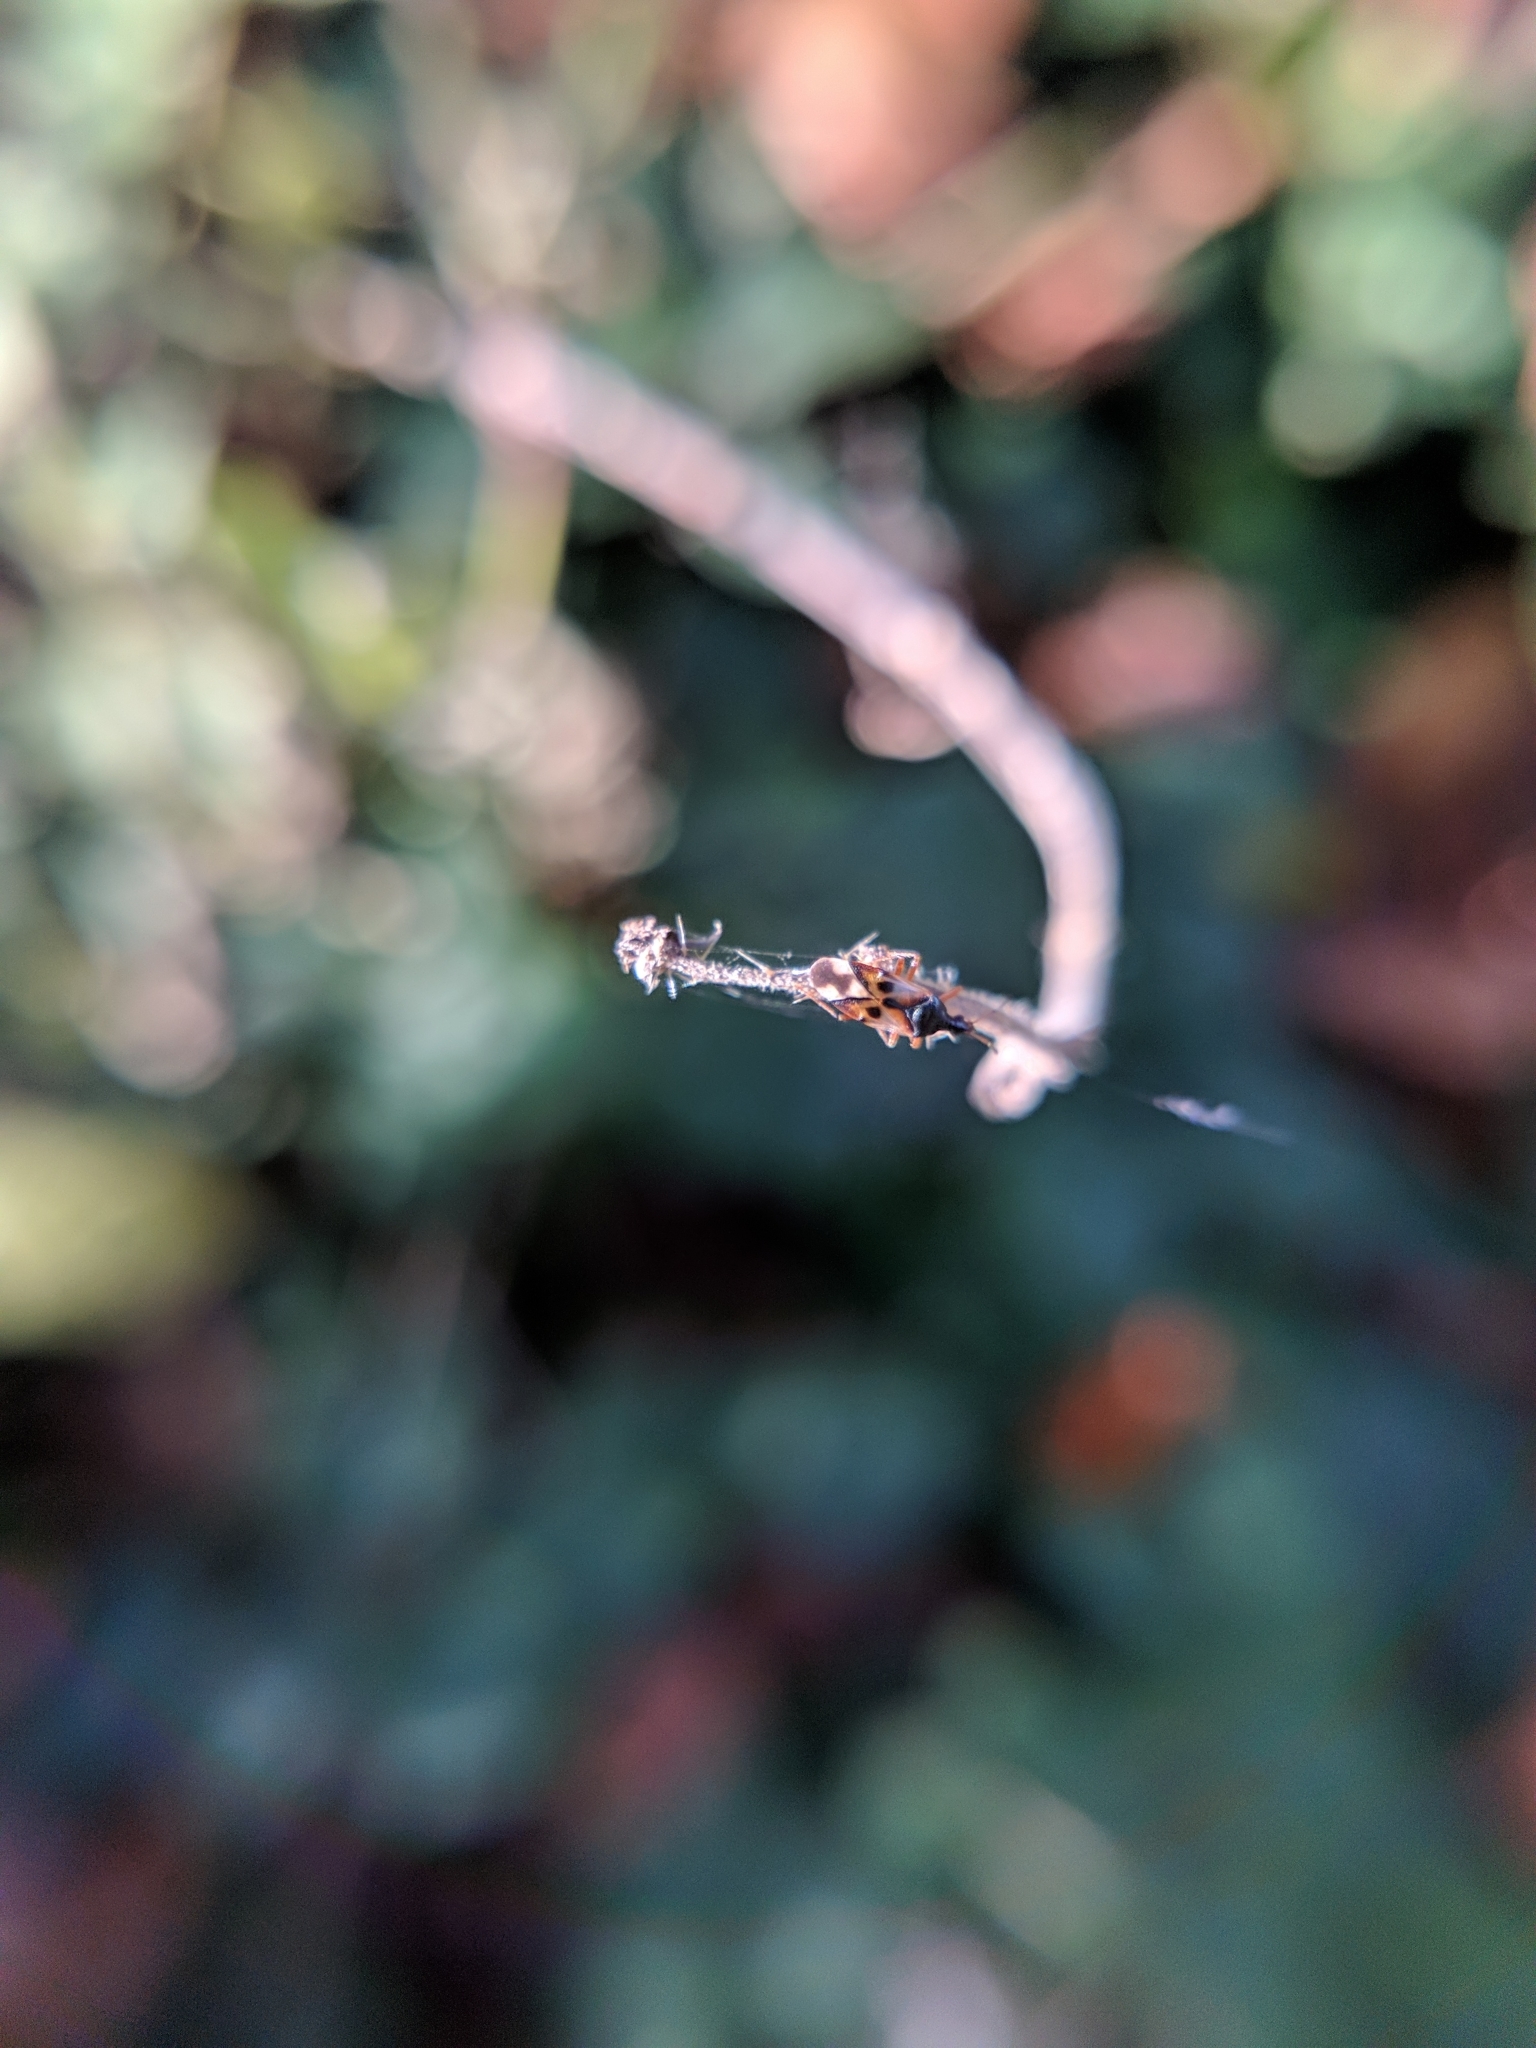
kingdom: Animalia
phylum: Arthropoda
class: Insecta
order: Hemiptera
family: Anthocoridae
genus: Anthocoris
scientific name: Anthocoris nemorum
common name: Minute pirate bug
